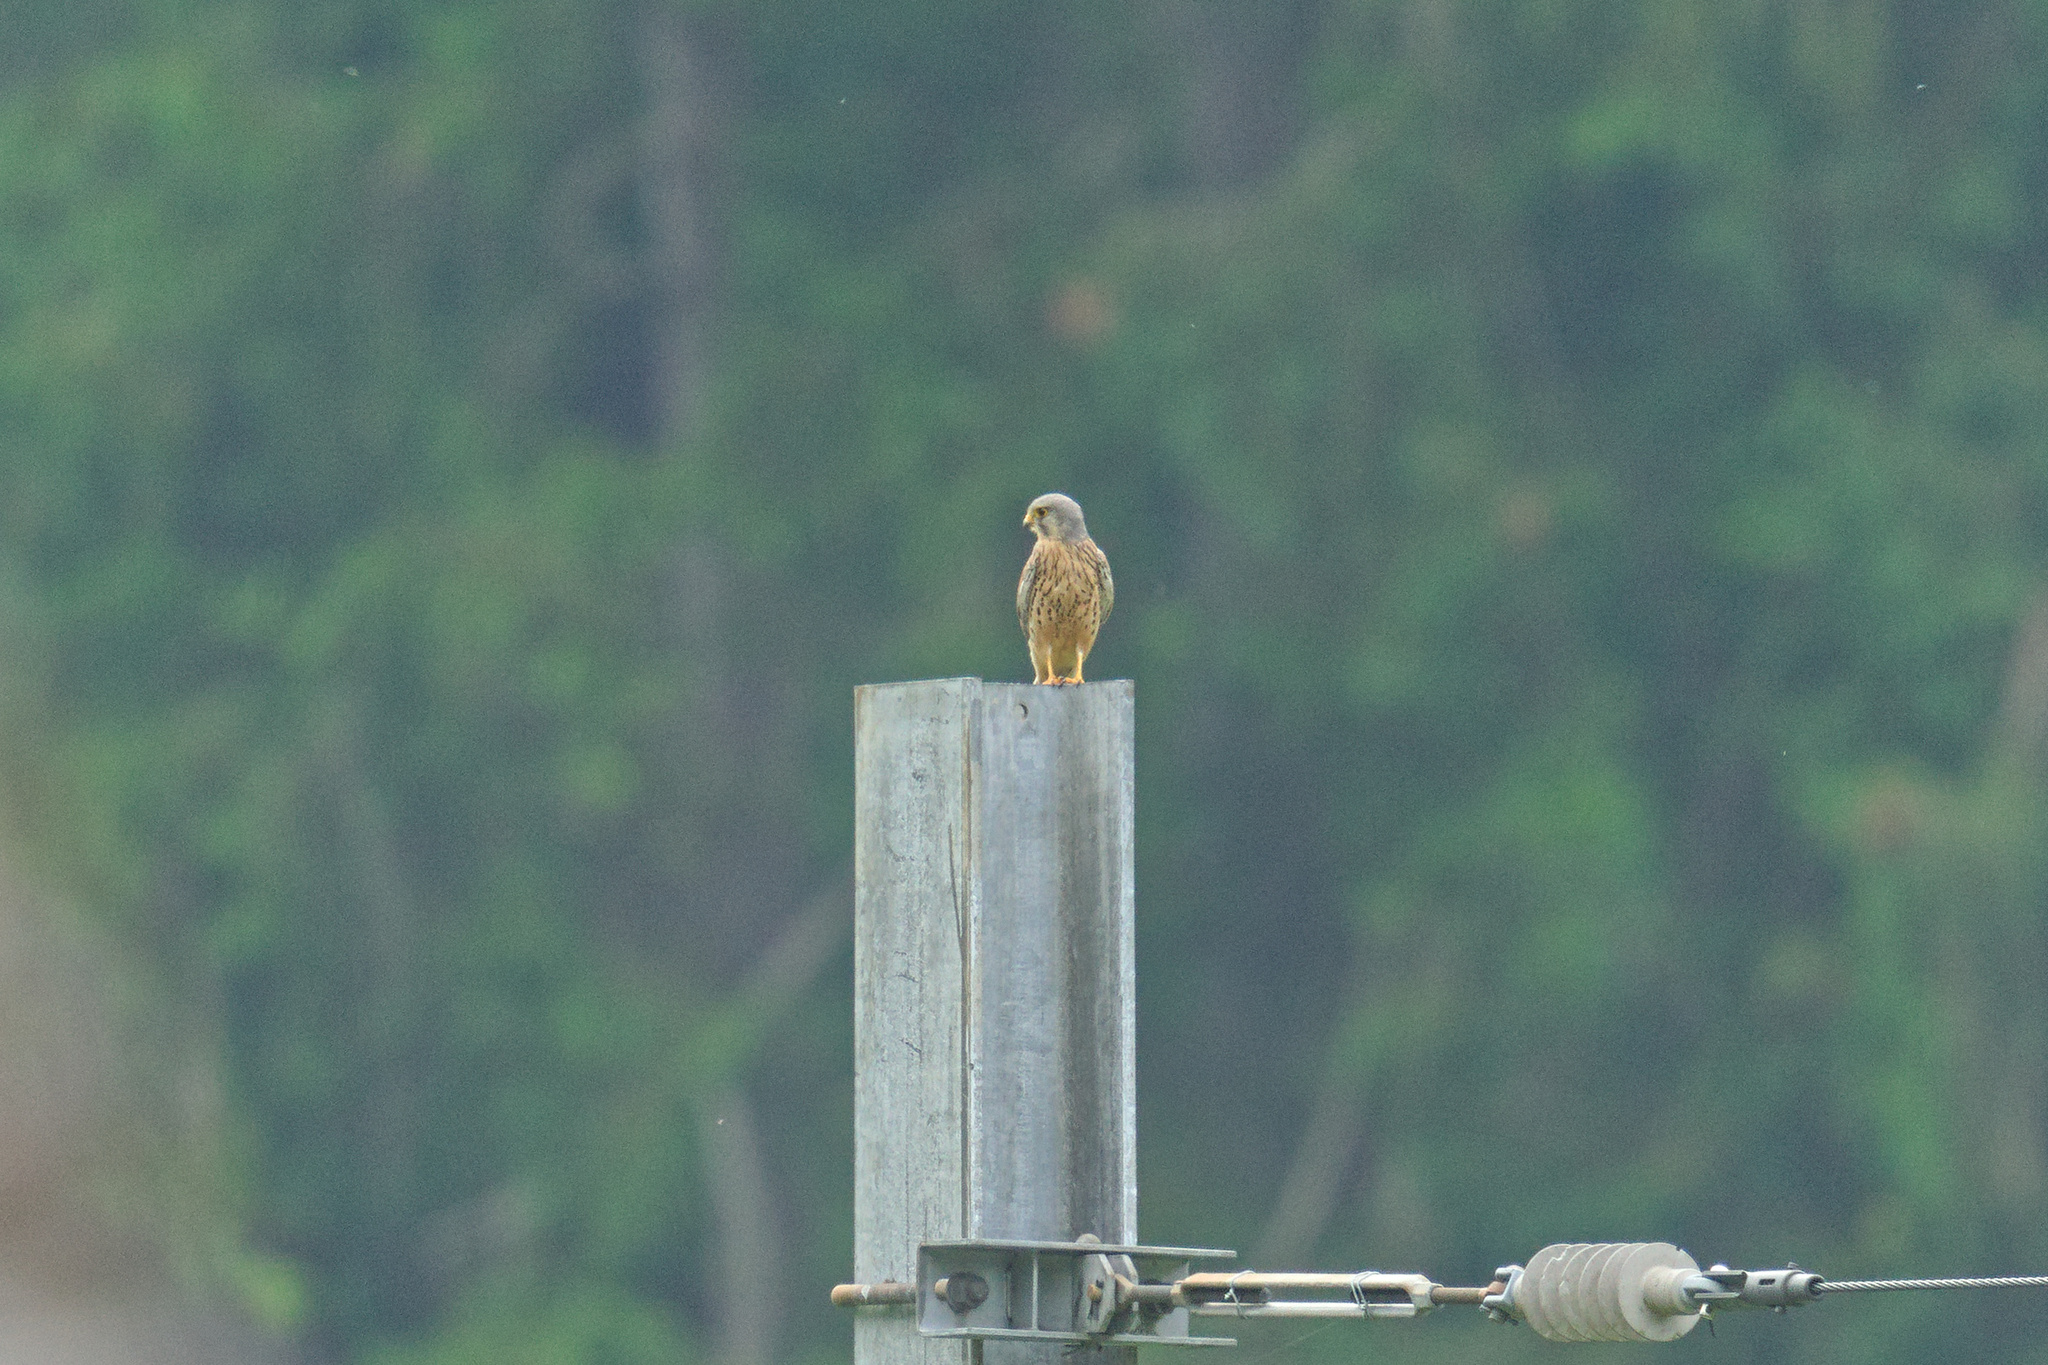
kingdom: Animalia
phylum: Chordata
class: Aves
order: Falconiformes
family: Falconidae
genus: Falco
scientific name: Falco tinnunculus
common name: Common kestrel
